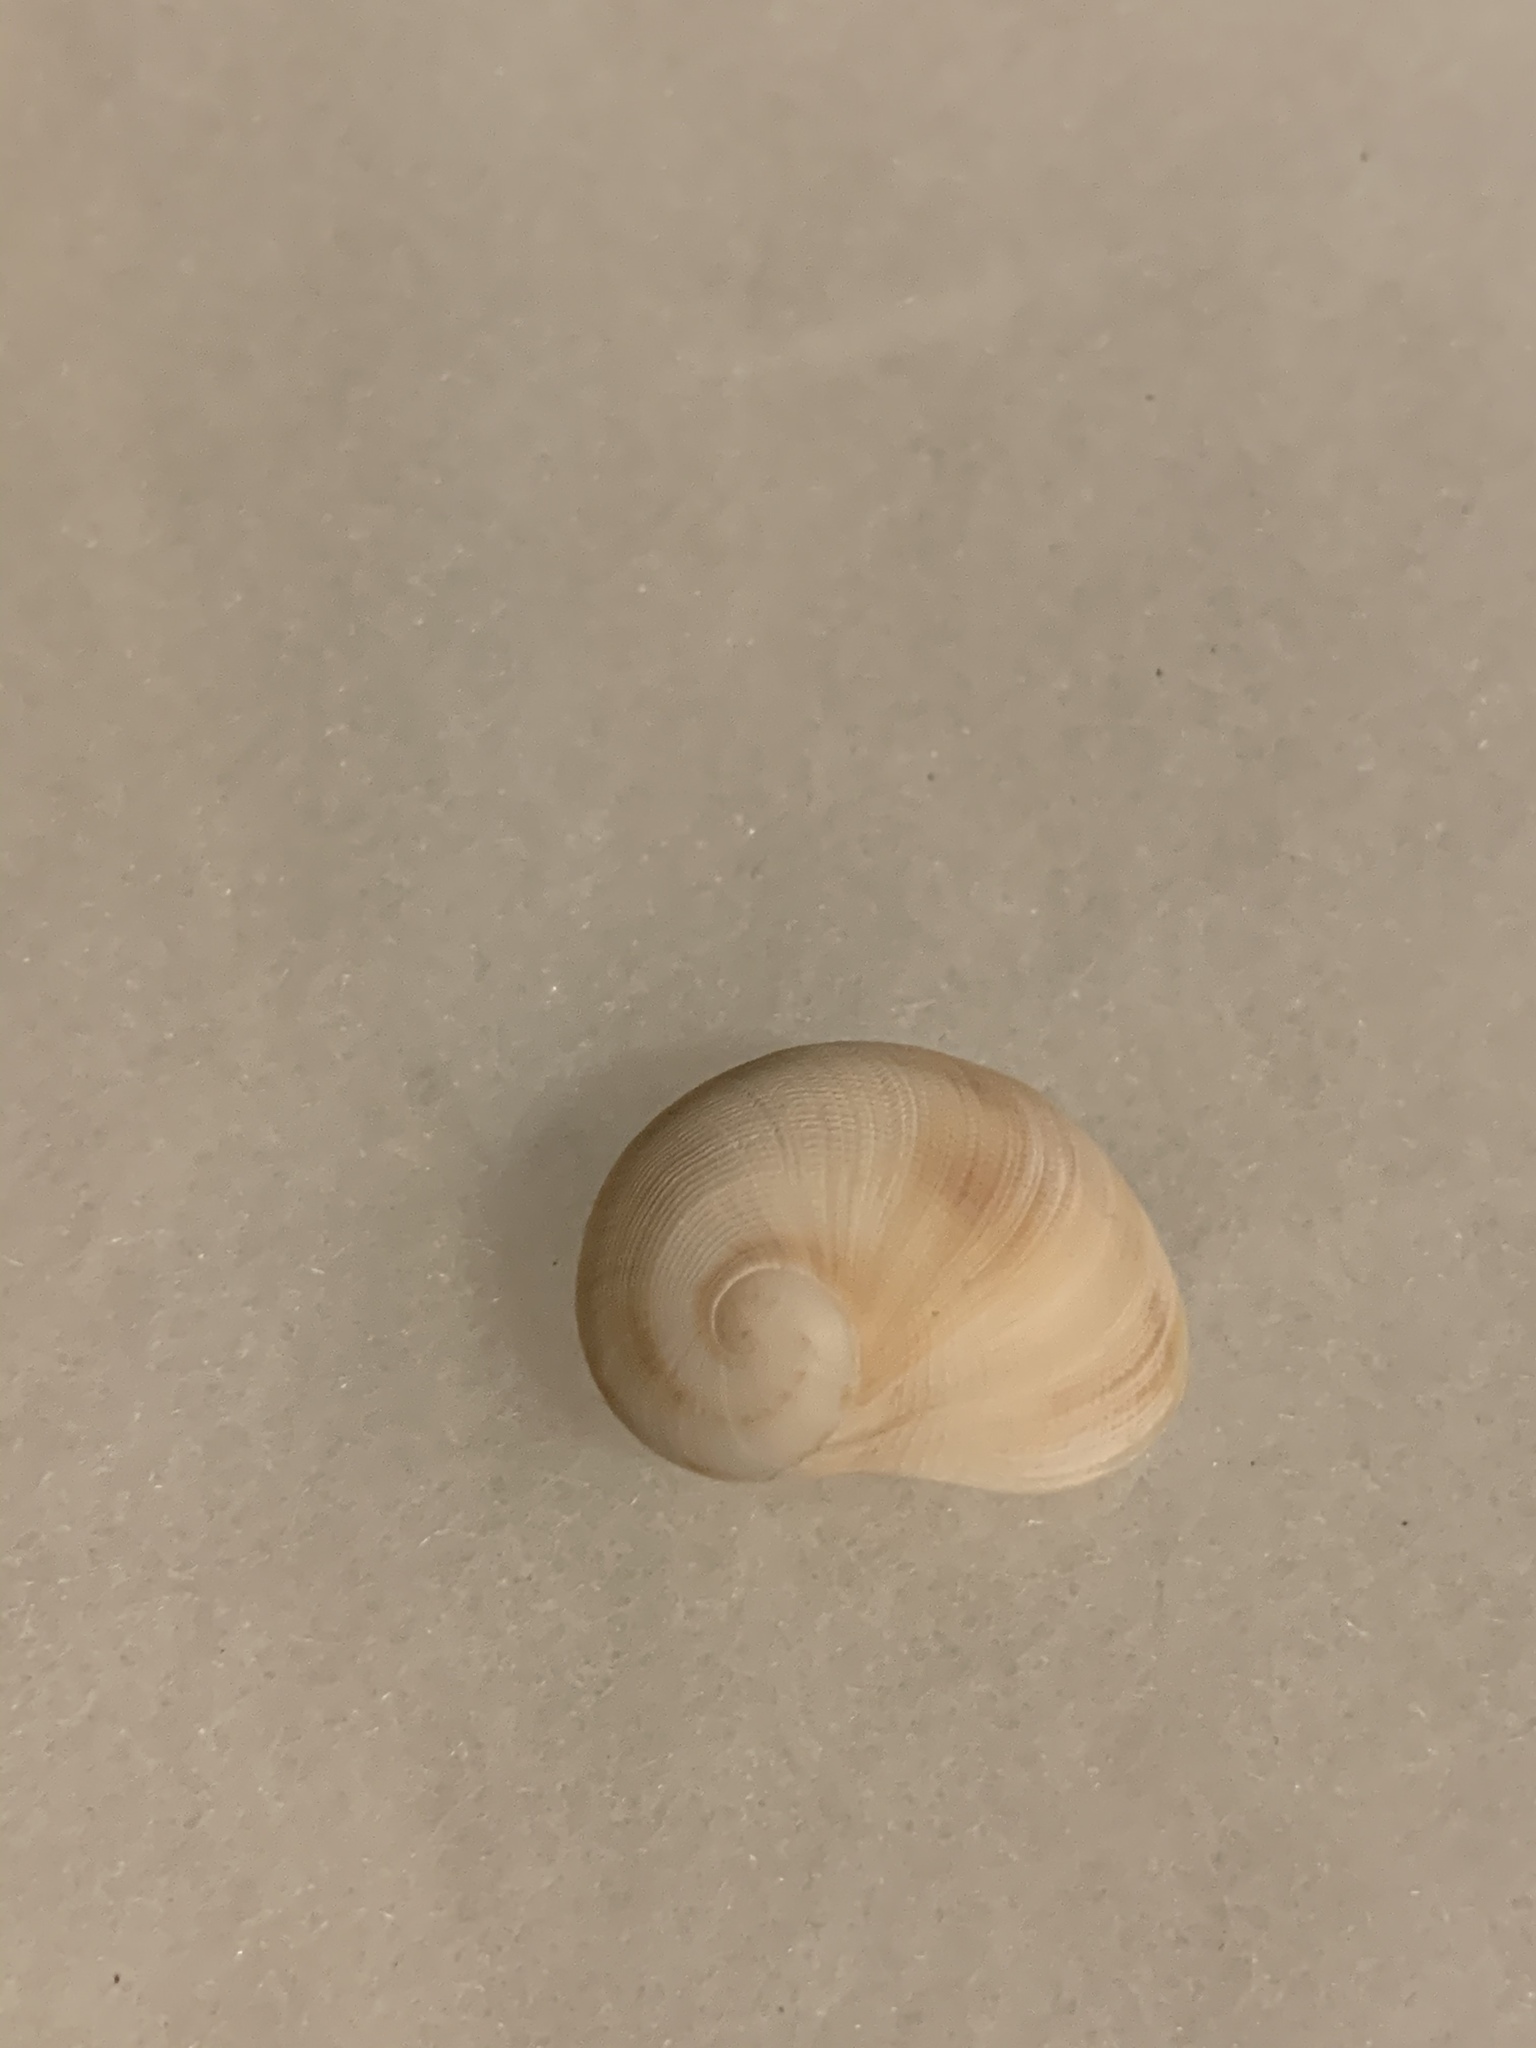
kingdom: Animalia
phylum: Mollusca
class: Gastropoda
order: Littorinimorpha
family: Naticidae
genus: Sinum
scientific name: Sinum maculatum
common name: Brown baby ear
